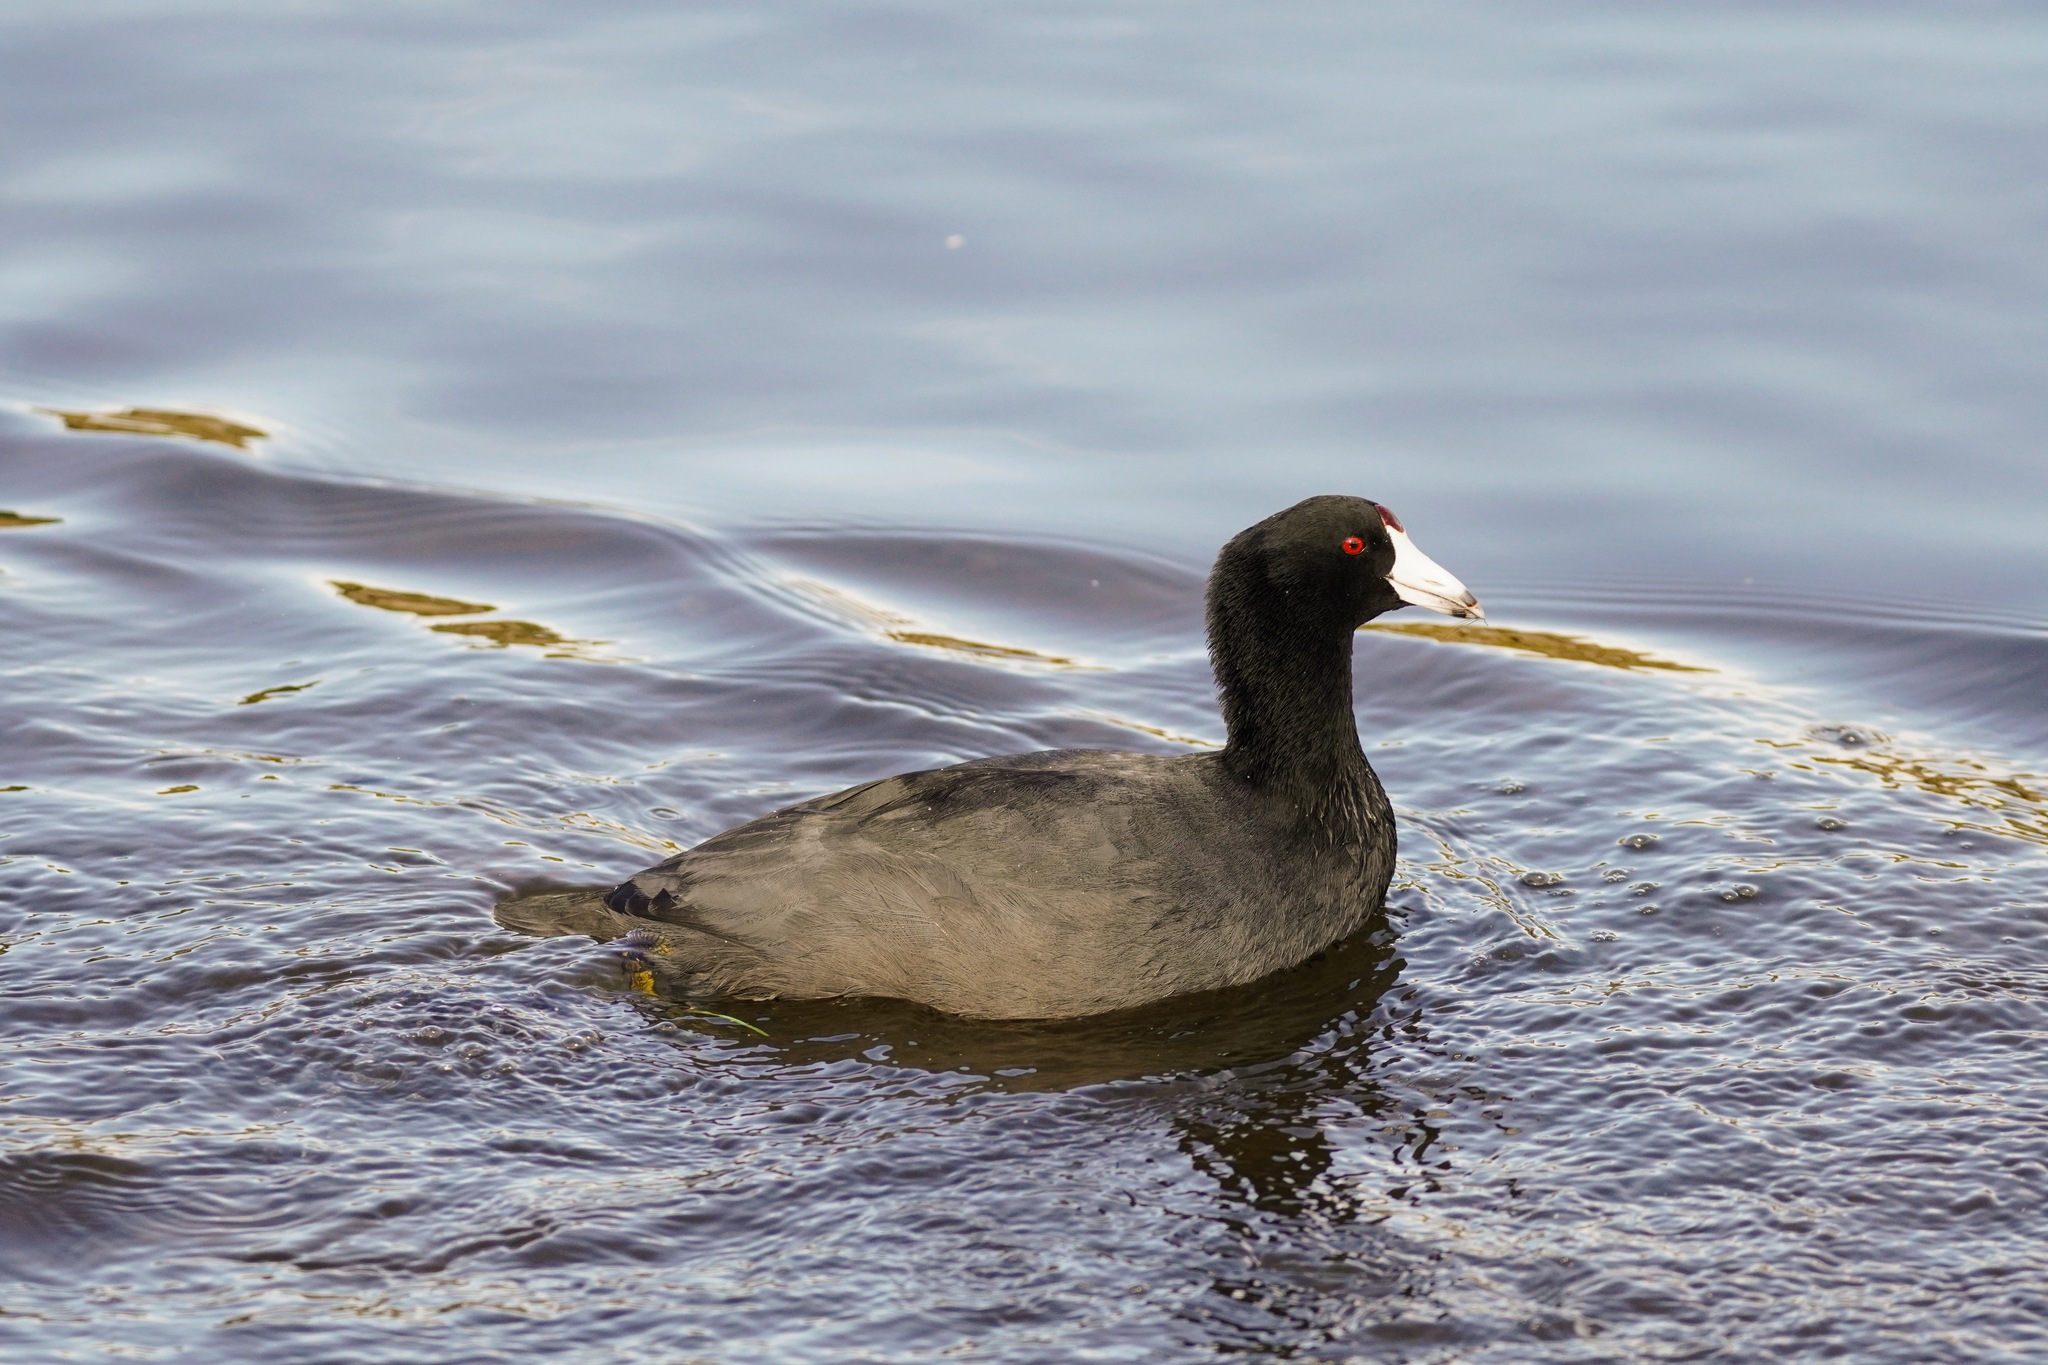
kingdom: Animalia
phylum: Chordata
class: Aves
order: Gruiformes
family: Rallidae
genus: Fulica
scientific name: Fulica americana
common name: American coot
